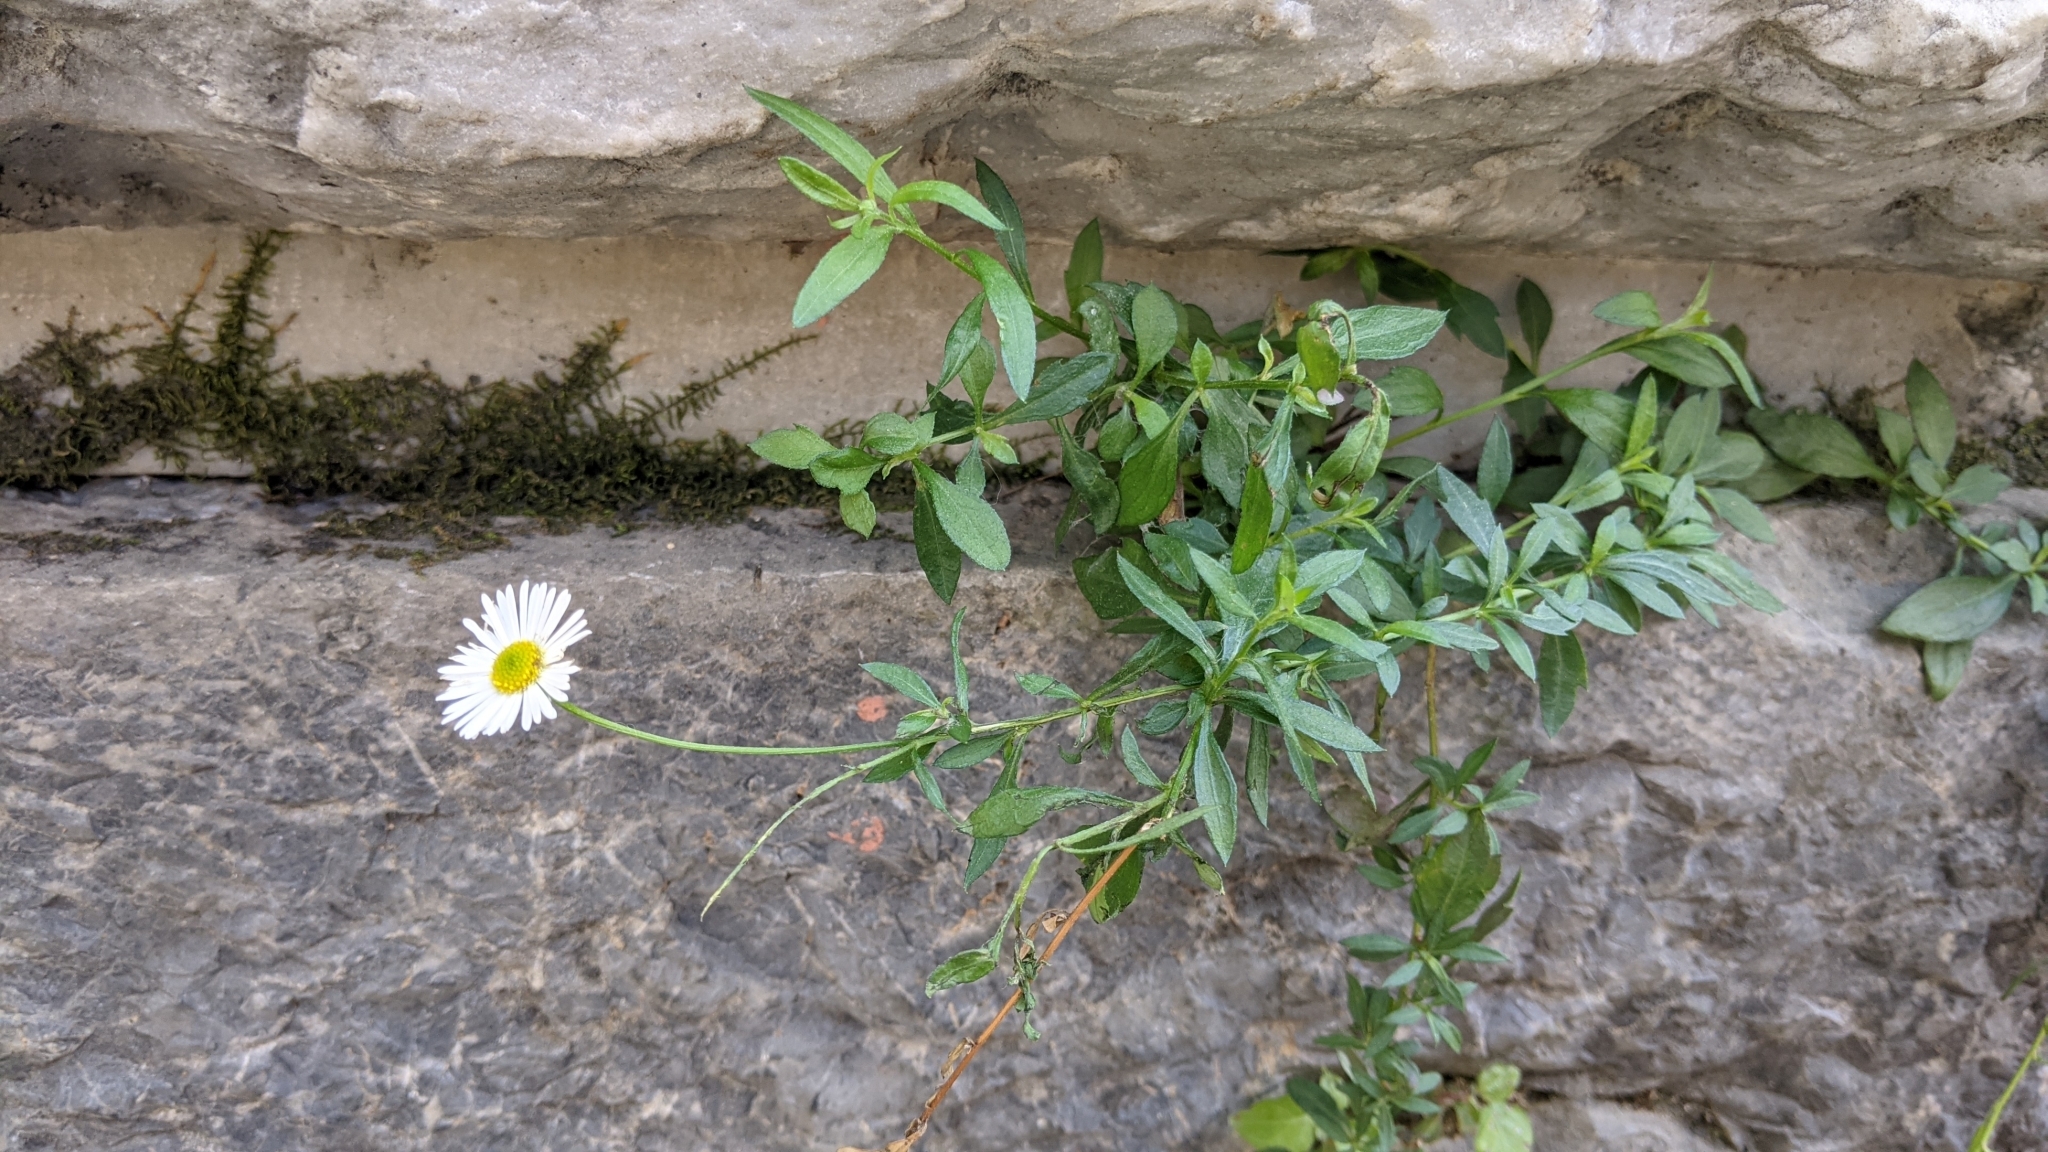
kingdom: Plantae
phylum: Tracheophyta
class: Magnoliopsida
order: Asterales
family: Asteraceae
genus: Erigeron
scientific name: Erigeron karvinskianus
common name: Mexican fleabane
